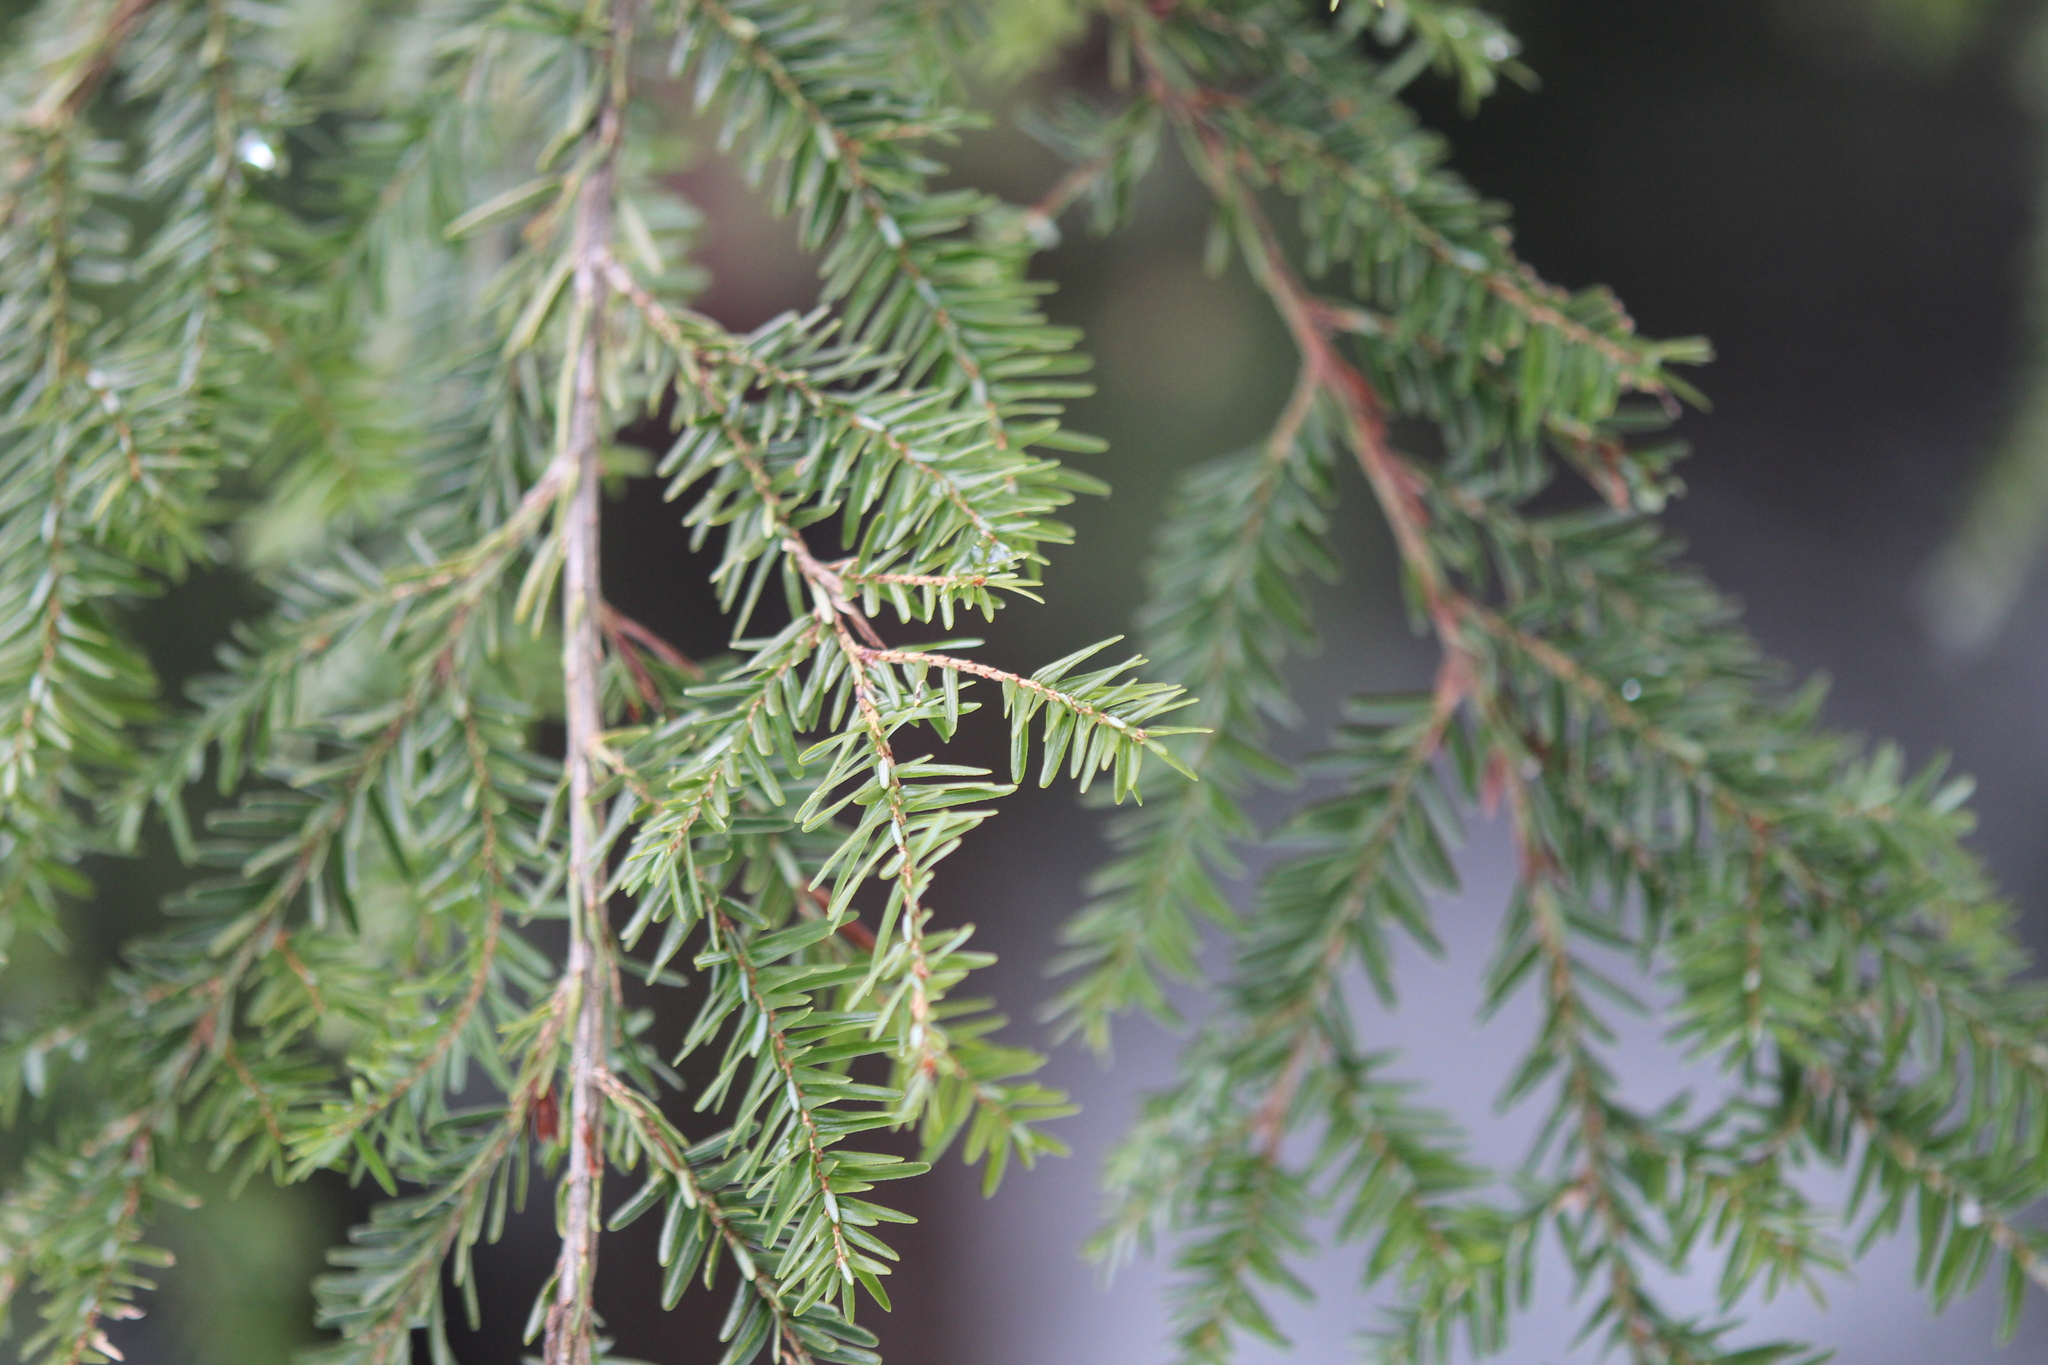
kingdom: Plantae
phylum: Tracheophyta
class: Pinopsida
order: Pinales
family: Pinaceae
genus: Tsuga
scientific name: Tsuga canadensis
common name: Eastern hemlock
